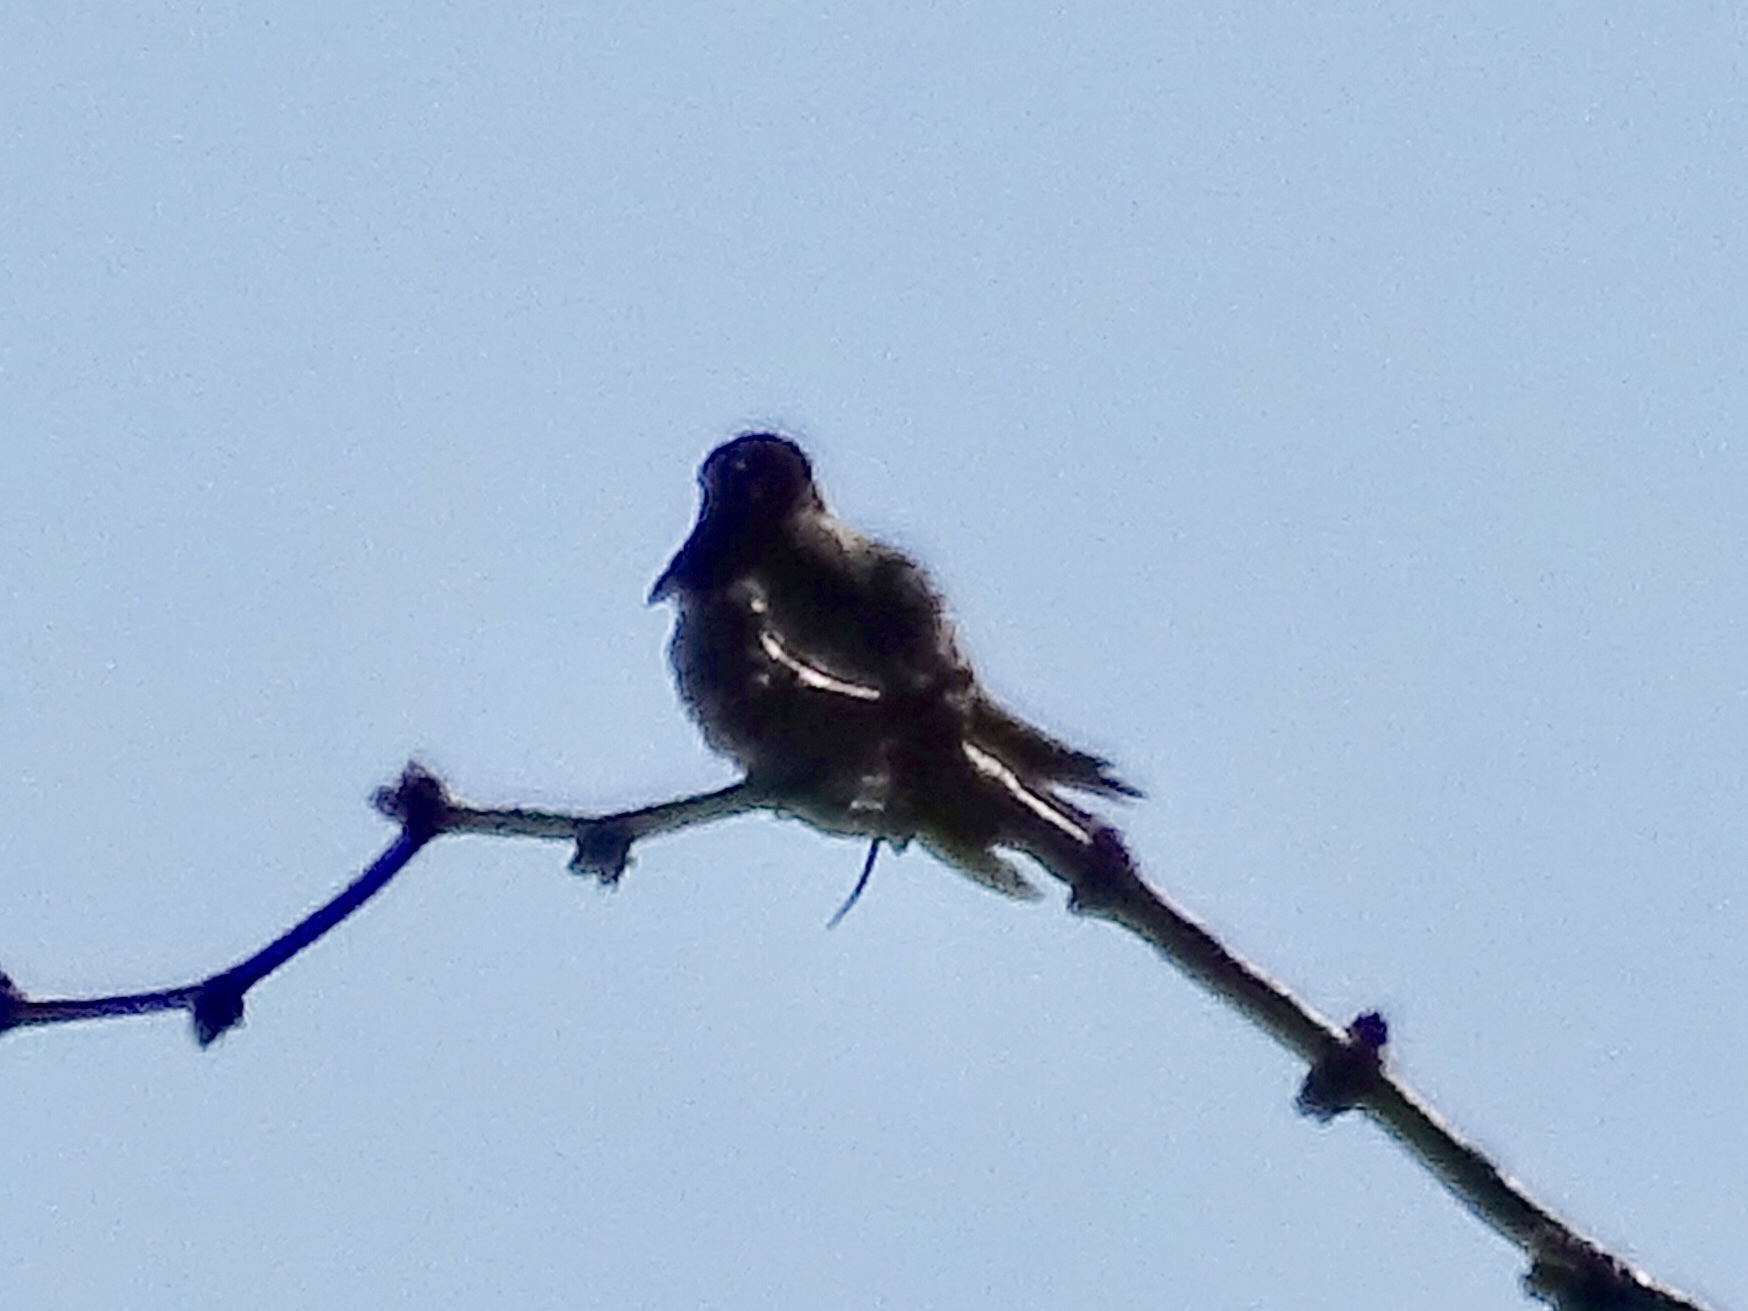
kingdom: Animalia
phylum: Chordata
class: Aves
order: Apodiformes
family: Trochilidae
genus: Calypte
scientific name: Calypte anna
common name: Anna's hummingbird
